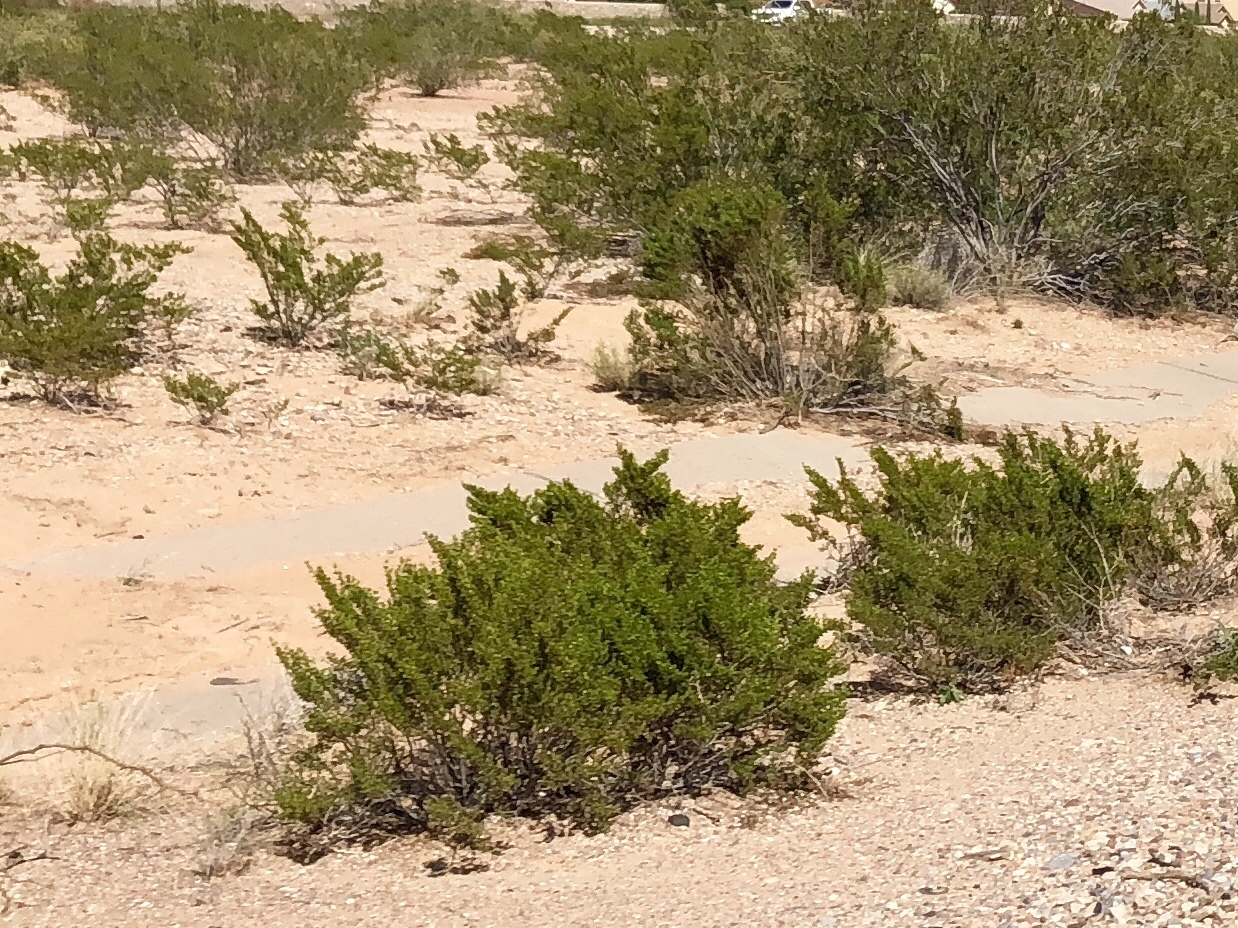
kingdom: Plantae
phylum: Tracheophyta
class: Magnoliopsida
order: Zygophyllales
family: Zygophyllaceae
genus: Larrea
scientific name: Larrea tridentata
